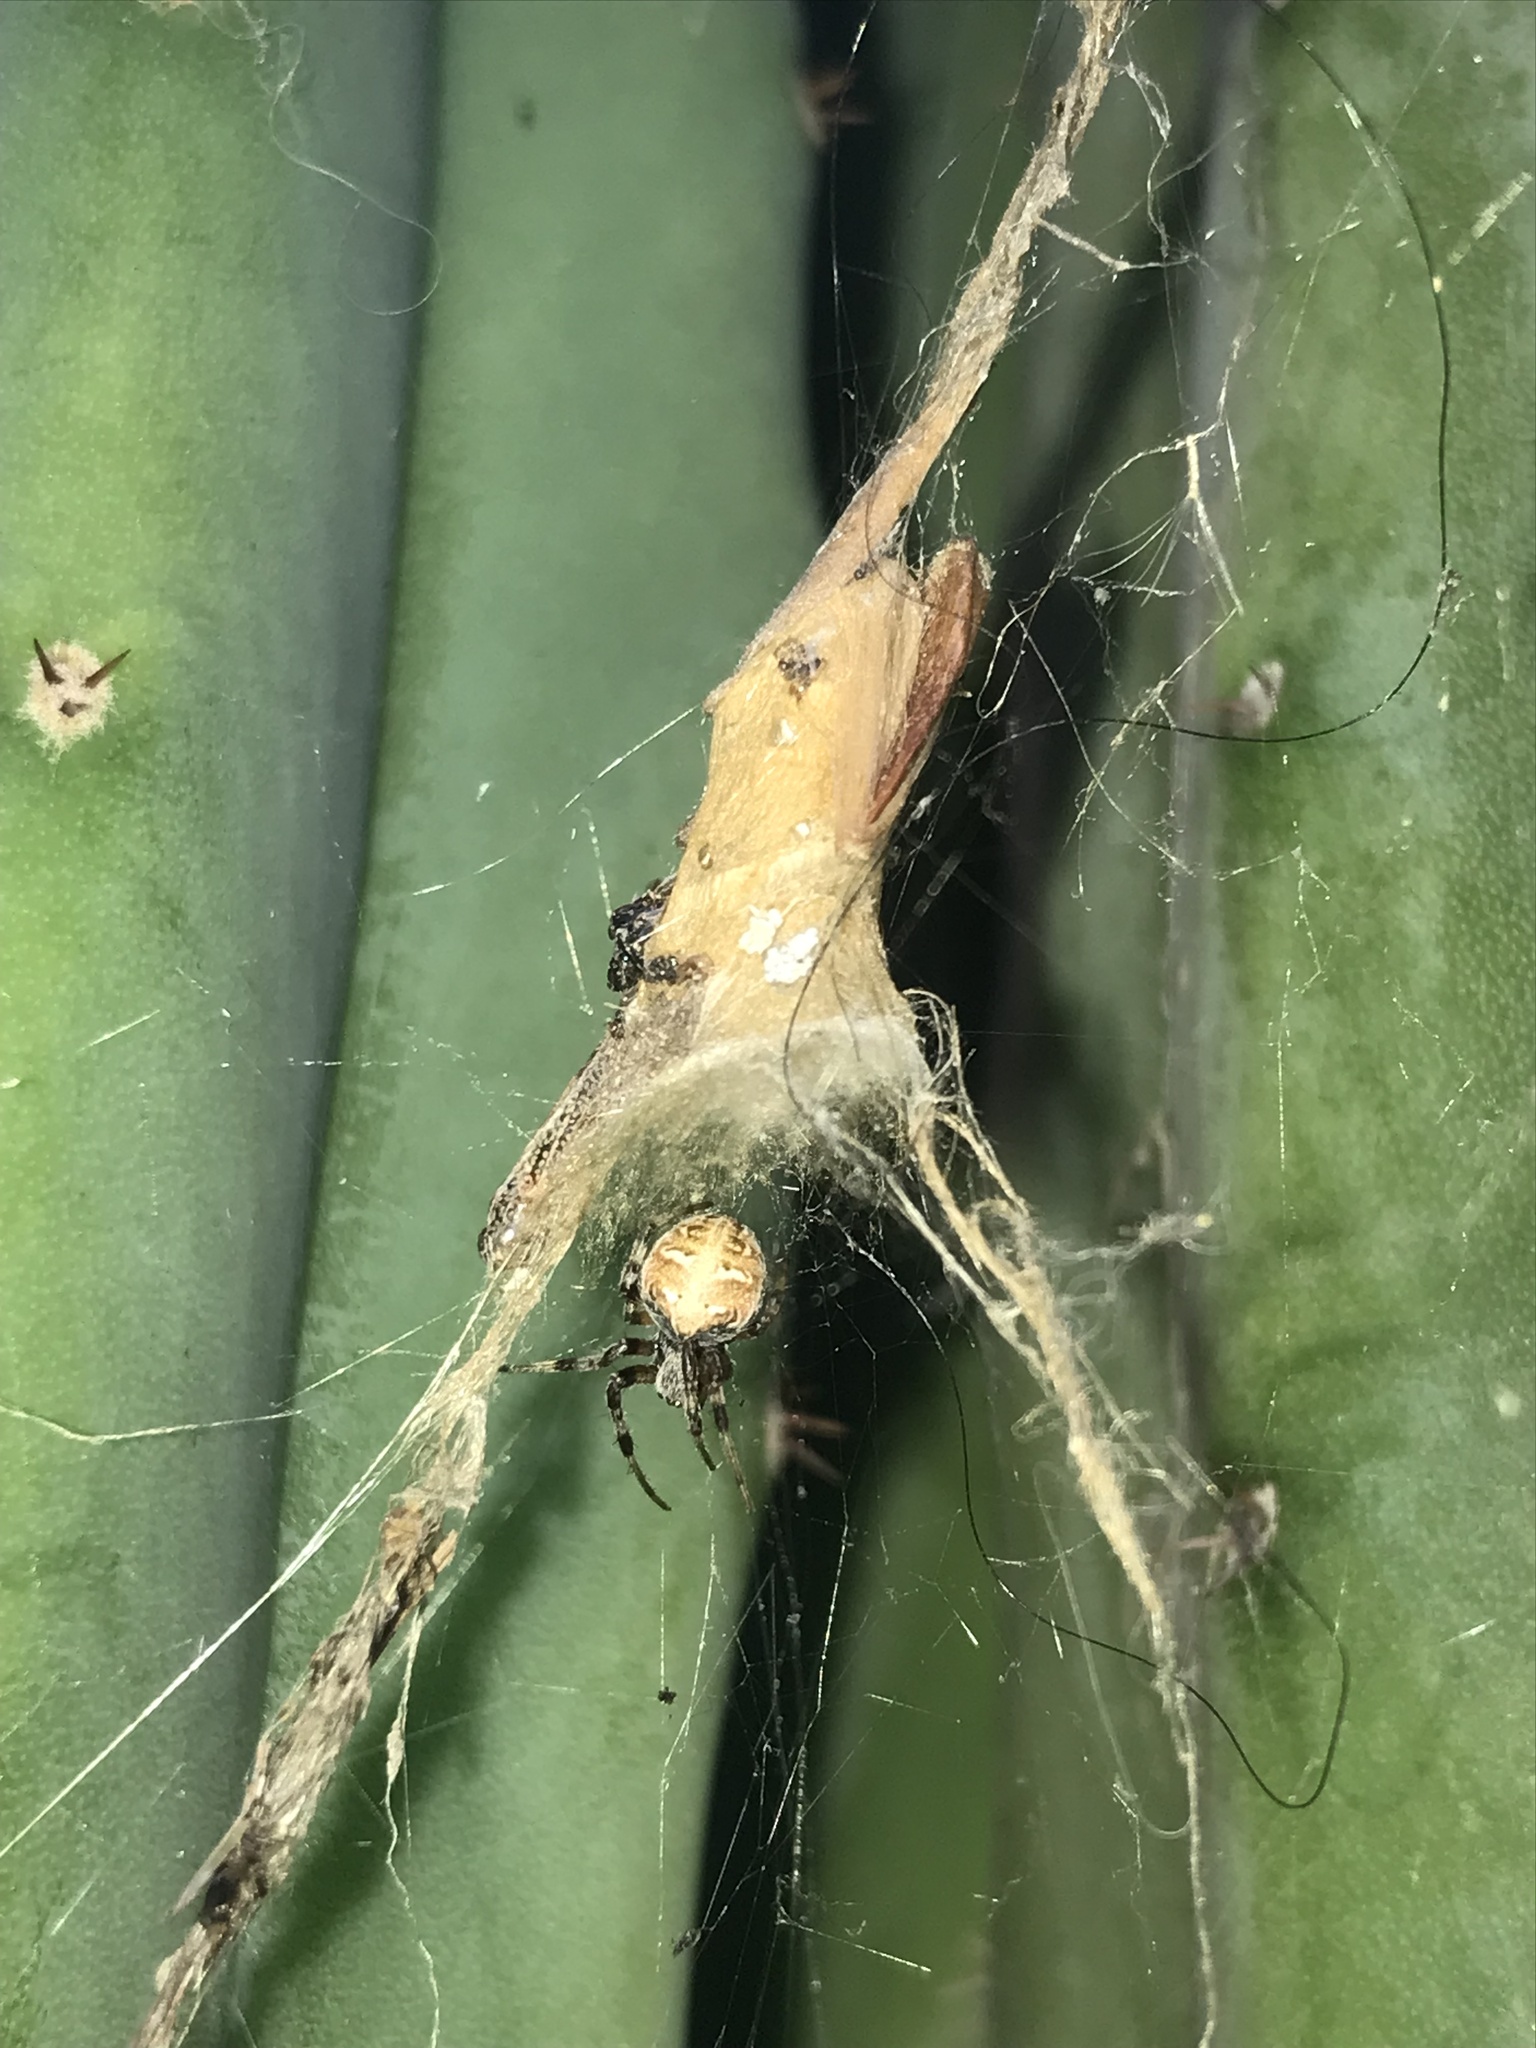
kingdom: Animalia
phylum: Arthropoda
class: Arachnida
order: Araneae
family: Araneidae
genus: Metepeira
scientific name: Metepeira
